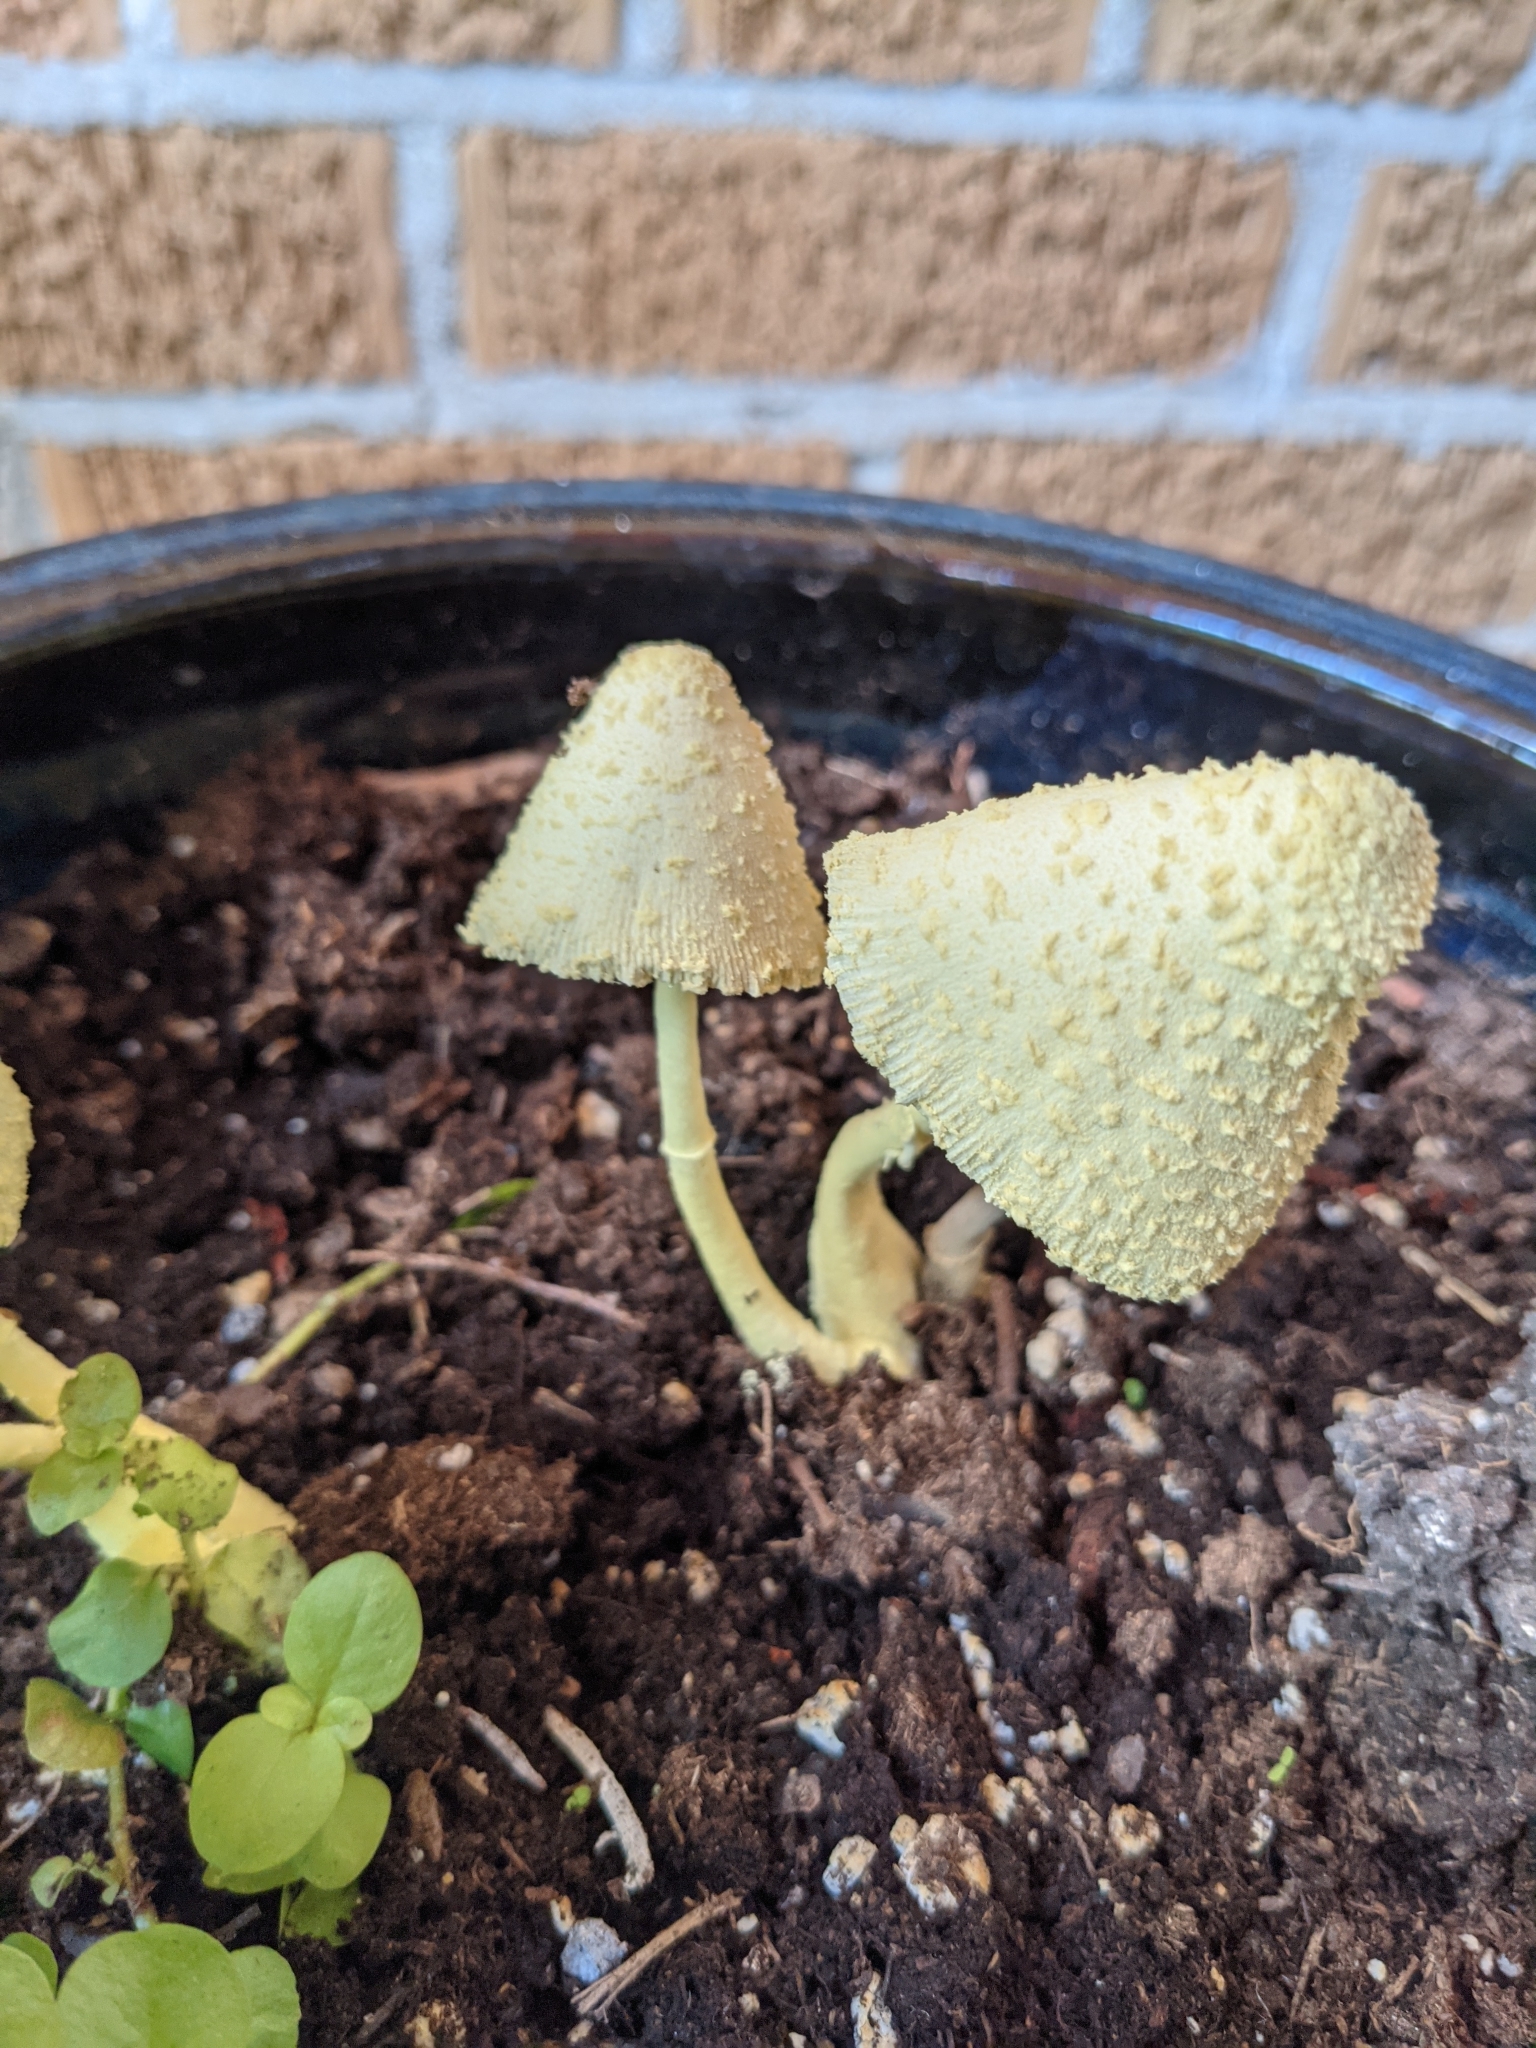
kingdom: Fungi
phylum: Basidiomycota
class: Agaricomycetes
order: Agaricales
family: Agaricaceae
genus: Leucocoprinus
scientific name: Leucocoprinus birnbaumii
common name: Plantpot dapperling
